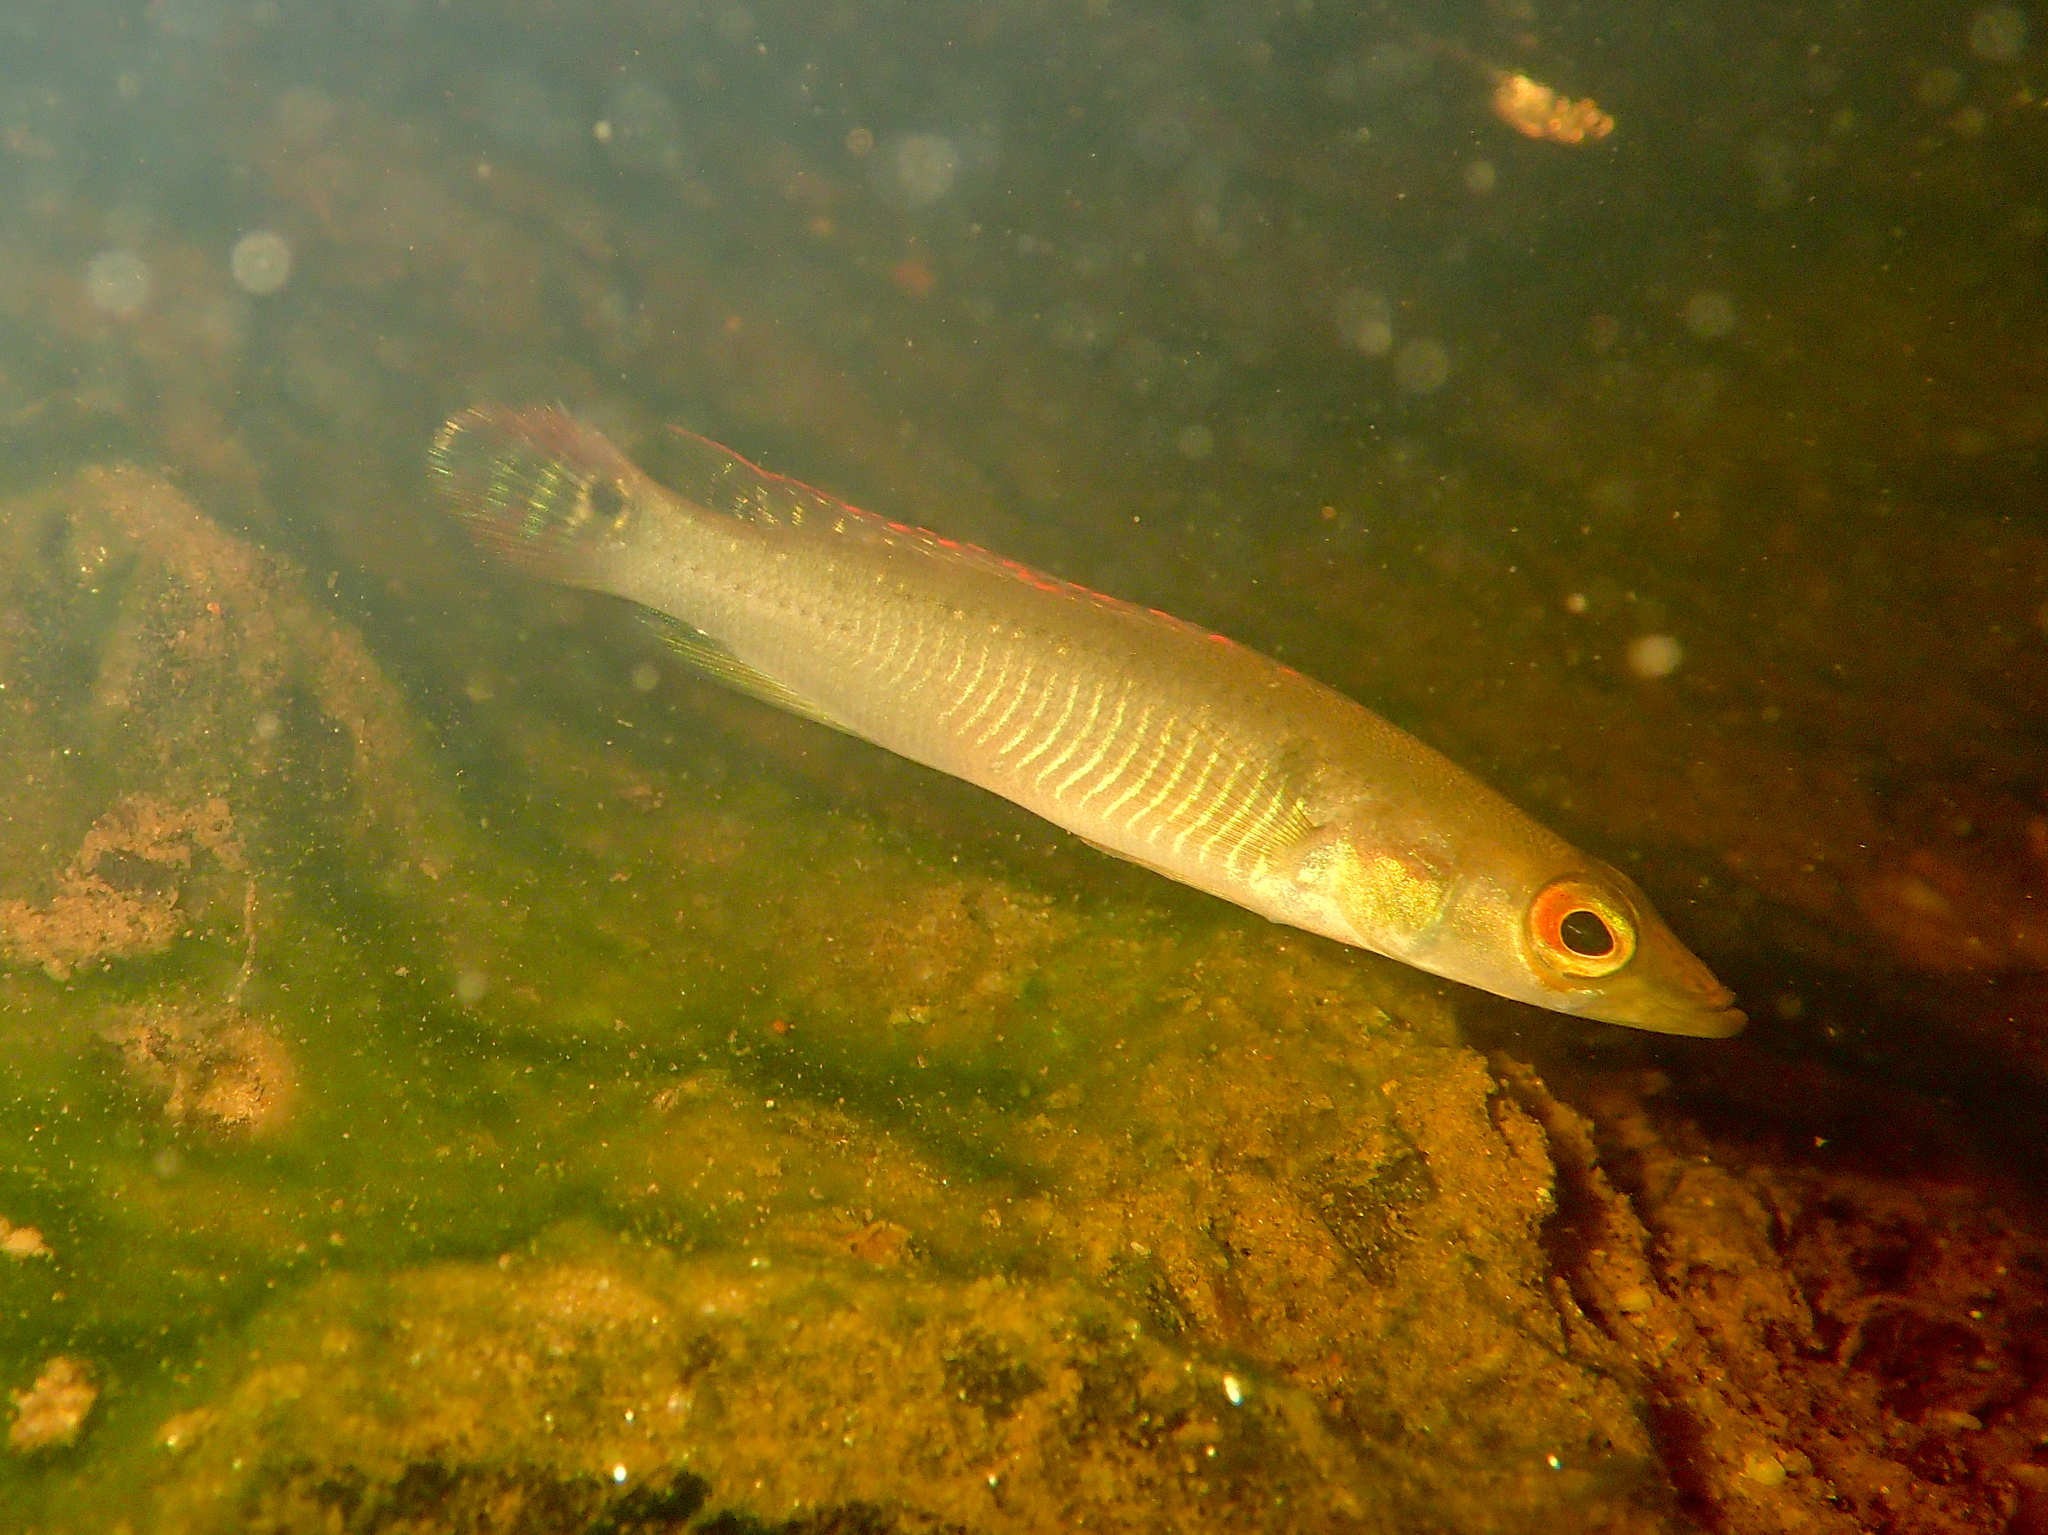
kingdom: Animalia
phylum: Chordata
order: Perciformes
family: Cichlidae
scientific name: Cichlidae
